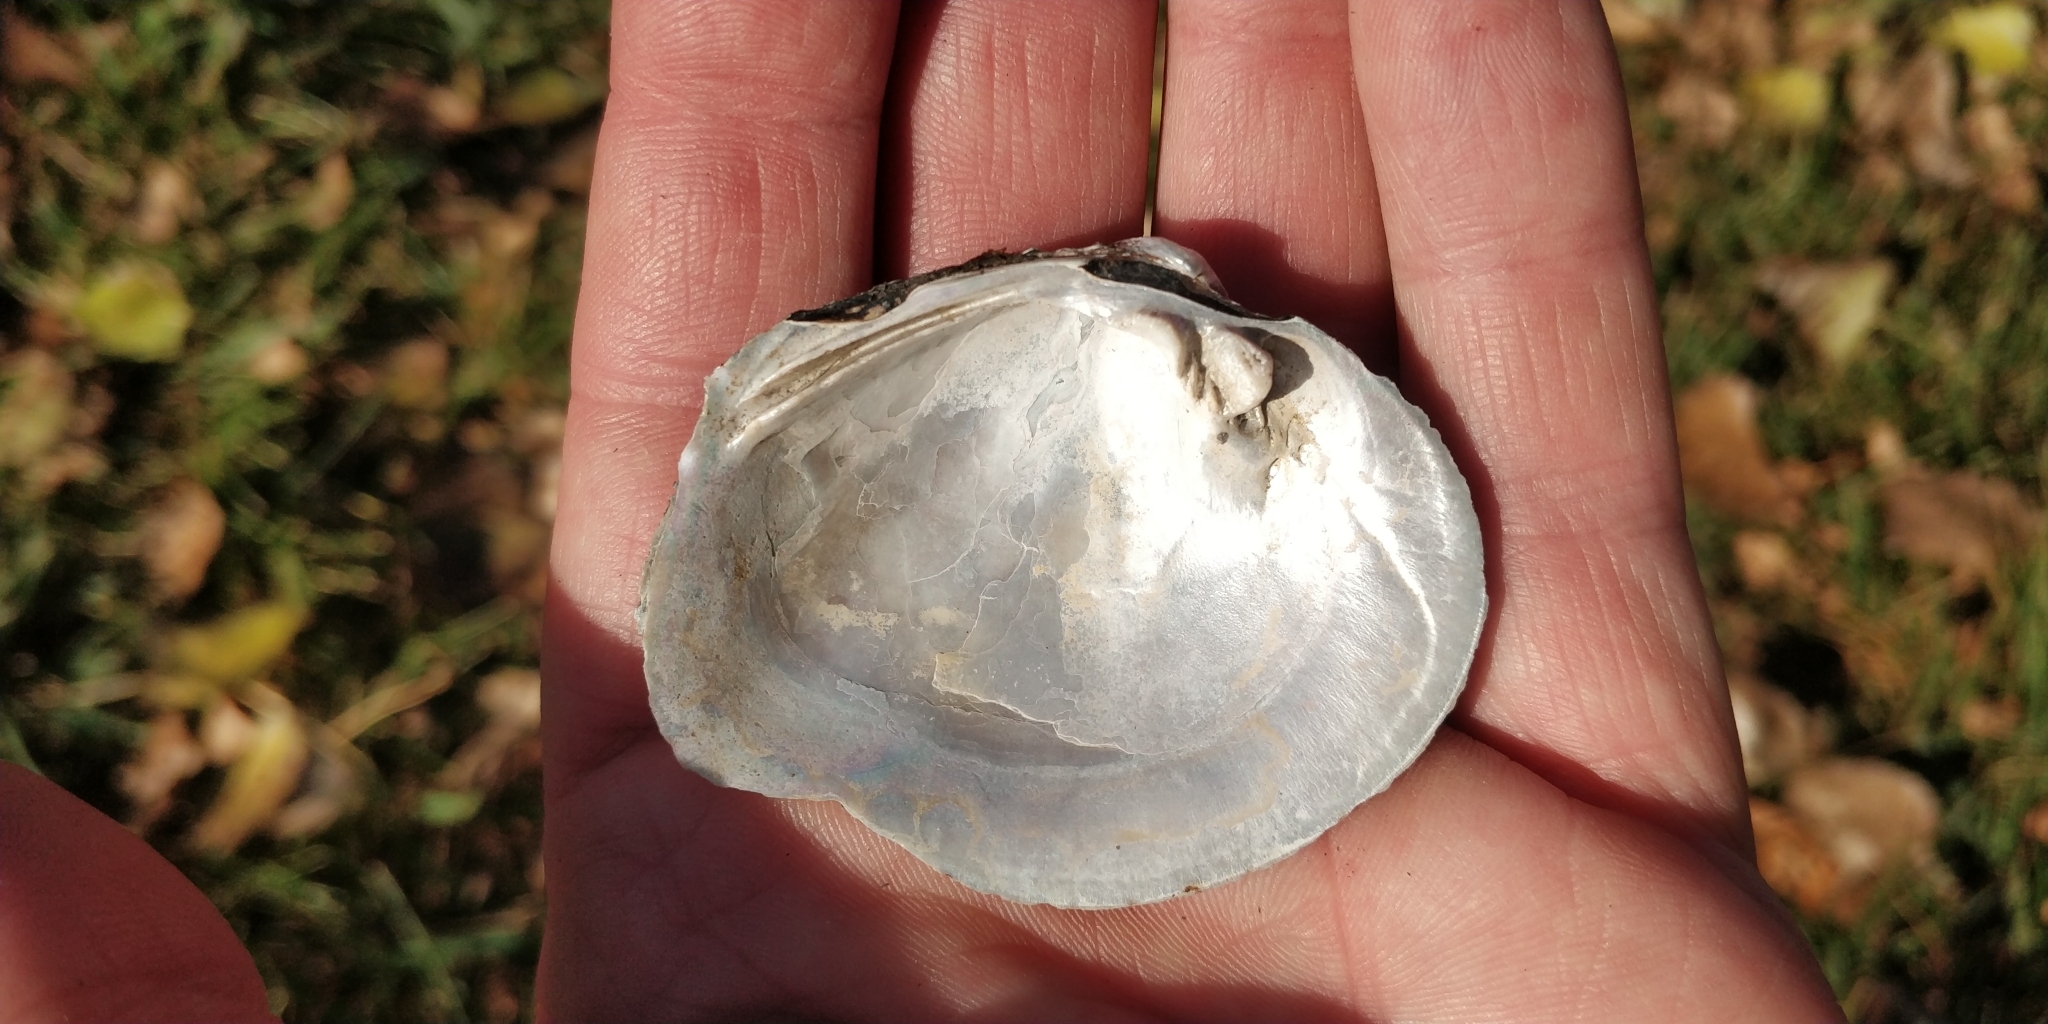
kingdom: Animalia
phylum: Mollusca
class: Bivalvia
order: Unionida
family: Unionidae
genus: Quadrula
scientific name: Quadrula quadrula
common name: Mapleleaf
